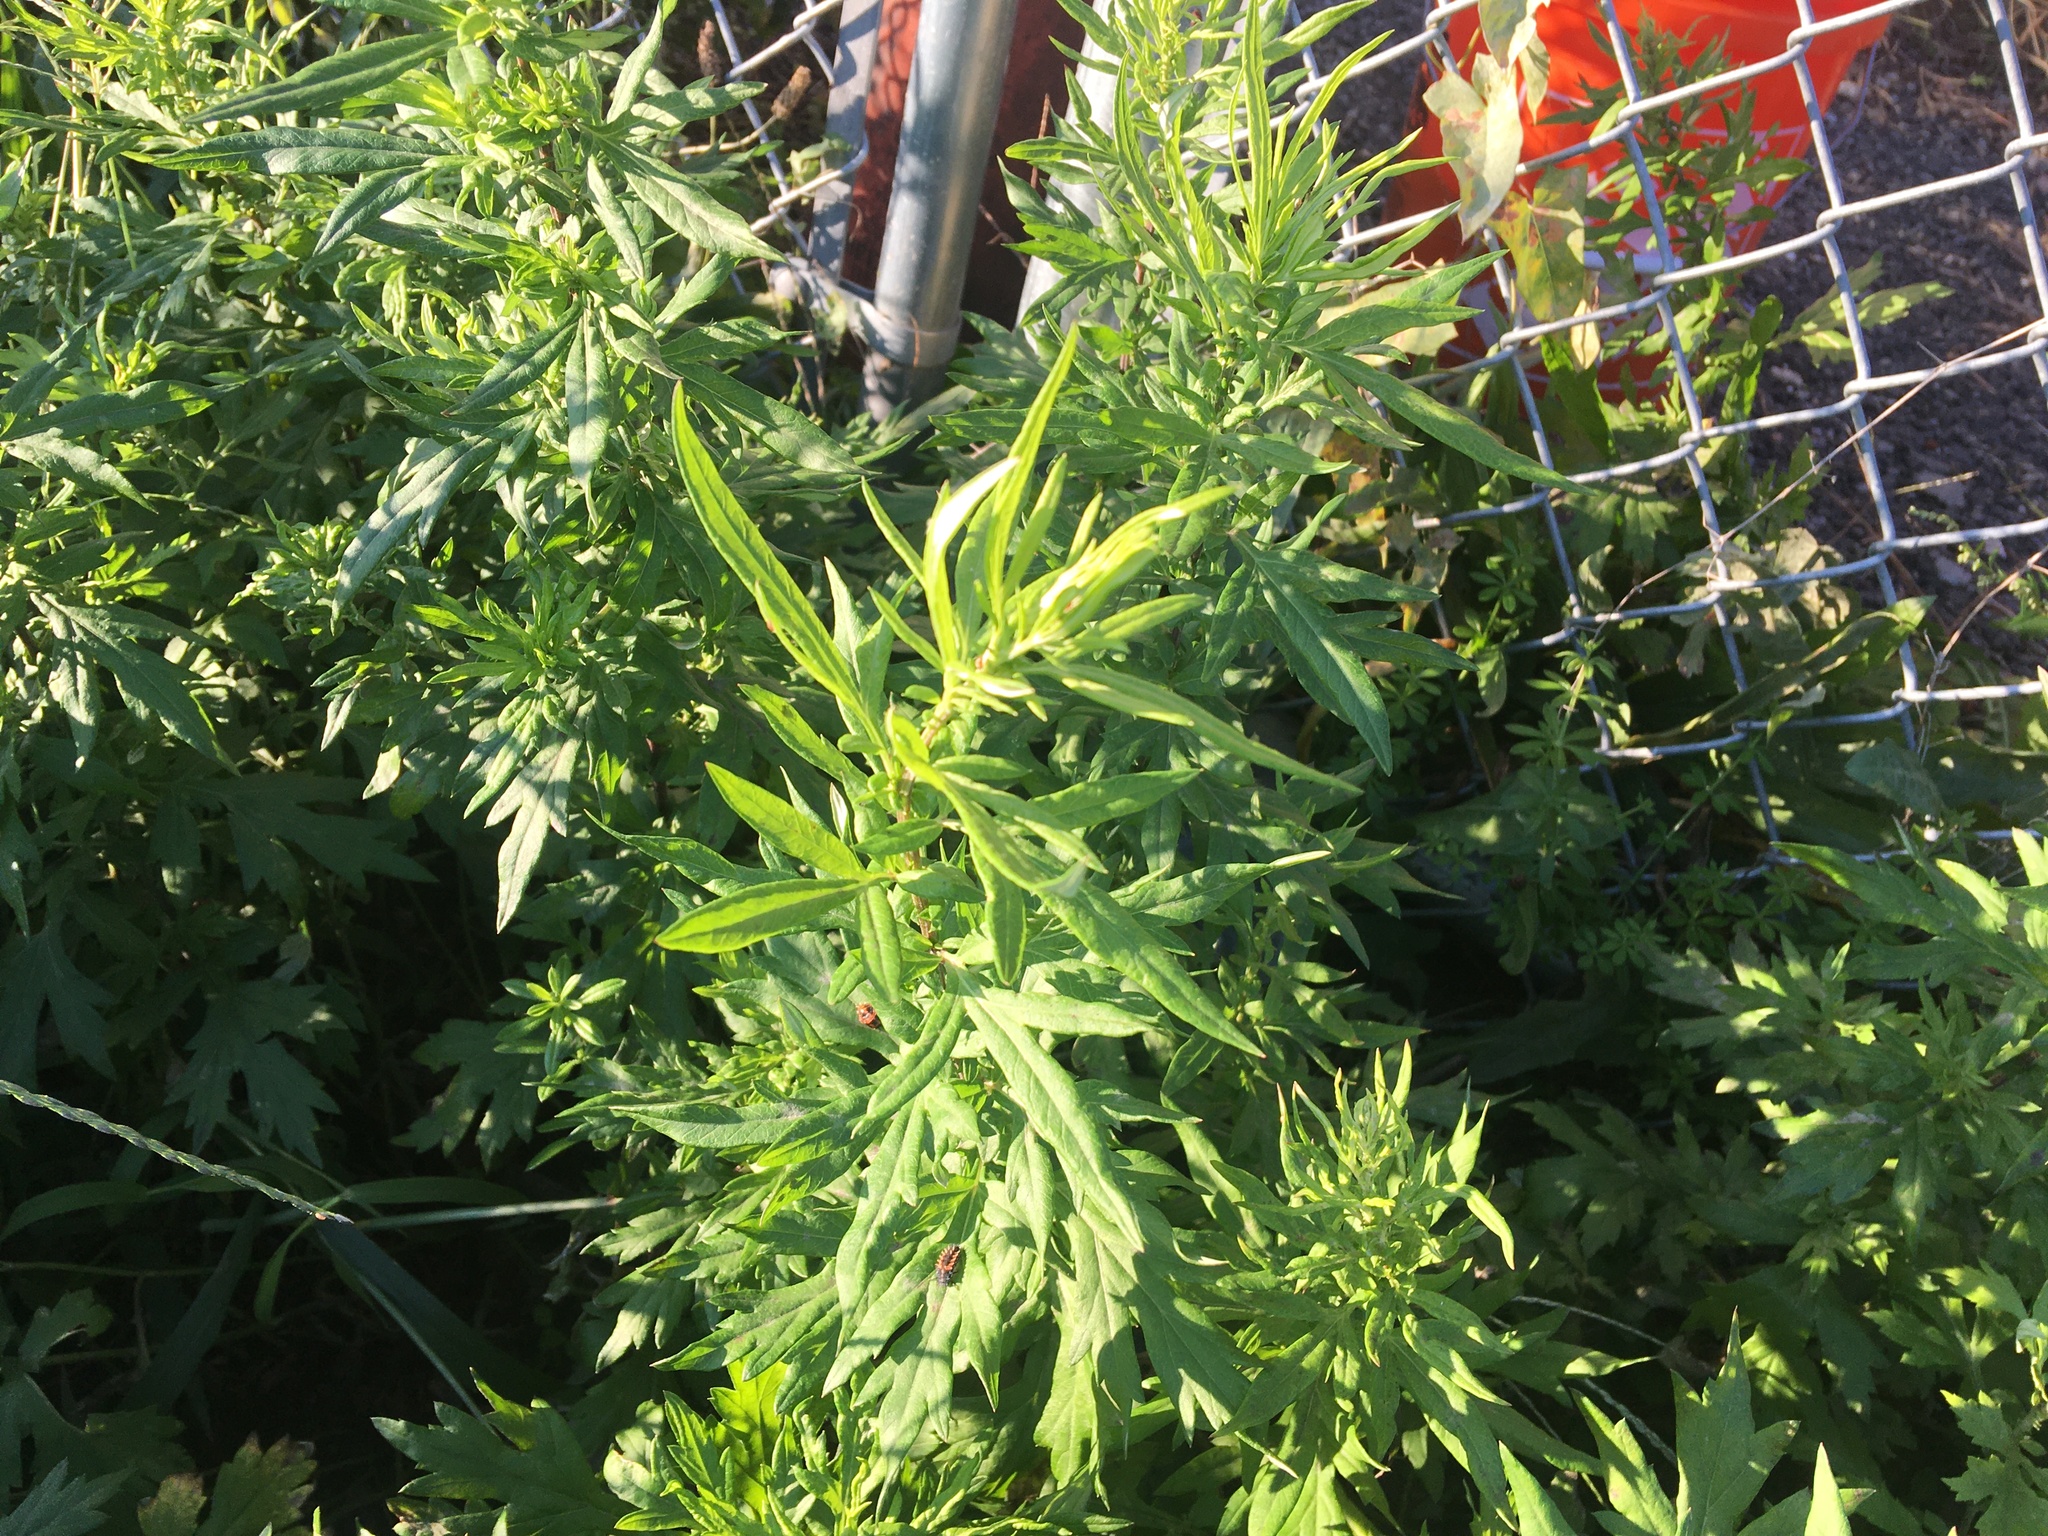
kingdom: Plantae
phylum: Tracheophyta
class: Magnoliopsida
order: Asterales
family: Asteraceae
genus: Artemisia
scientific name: Artemisia vulgaris
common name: Mugwort
